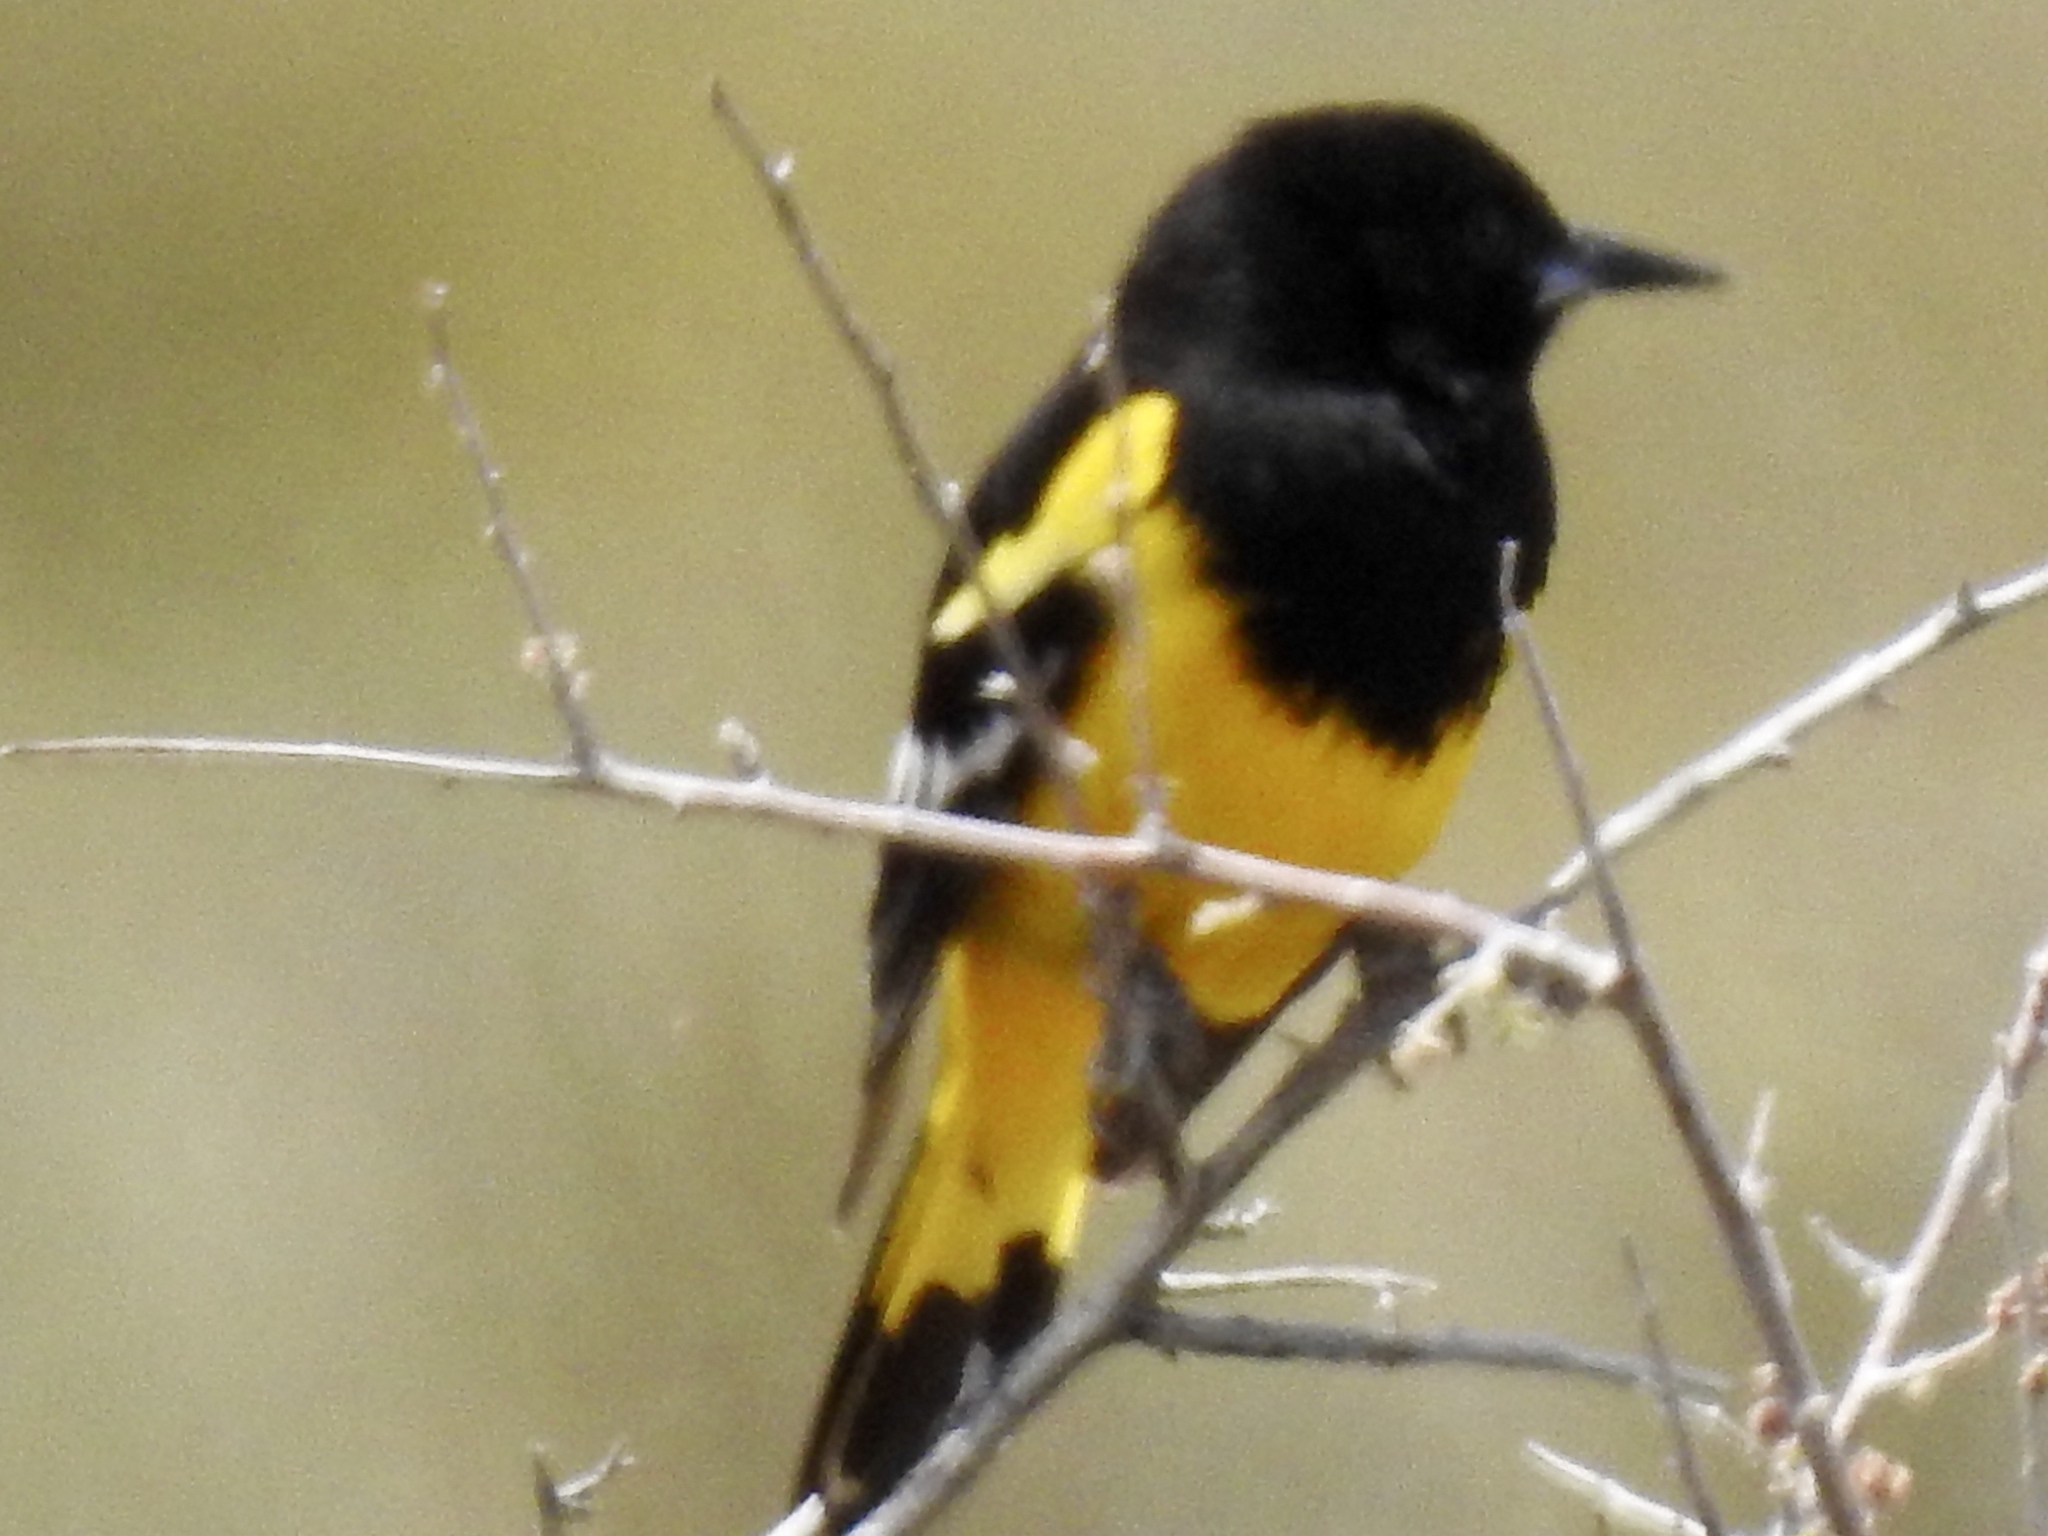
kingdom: Animalia
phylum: Chordata
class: Aves
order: Passeriformes
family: Icteridae
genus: Icterus
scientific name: Icterus parisorum
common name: Scott's oriole
